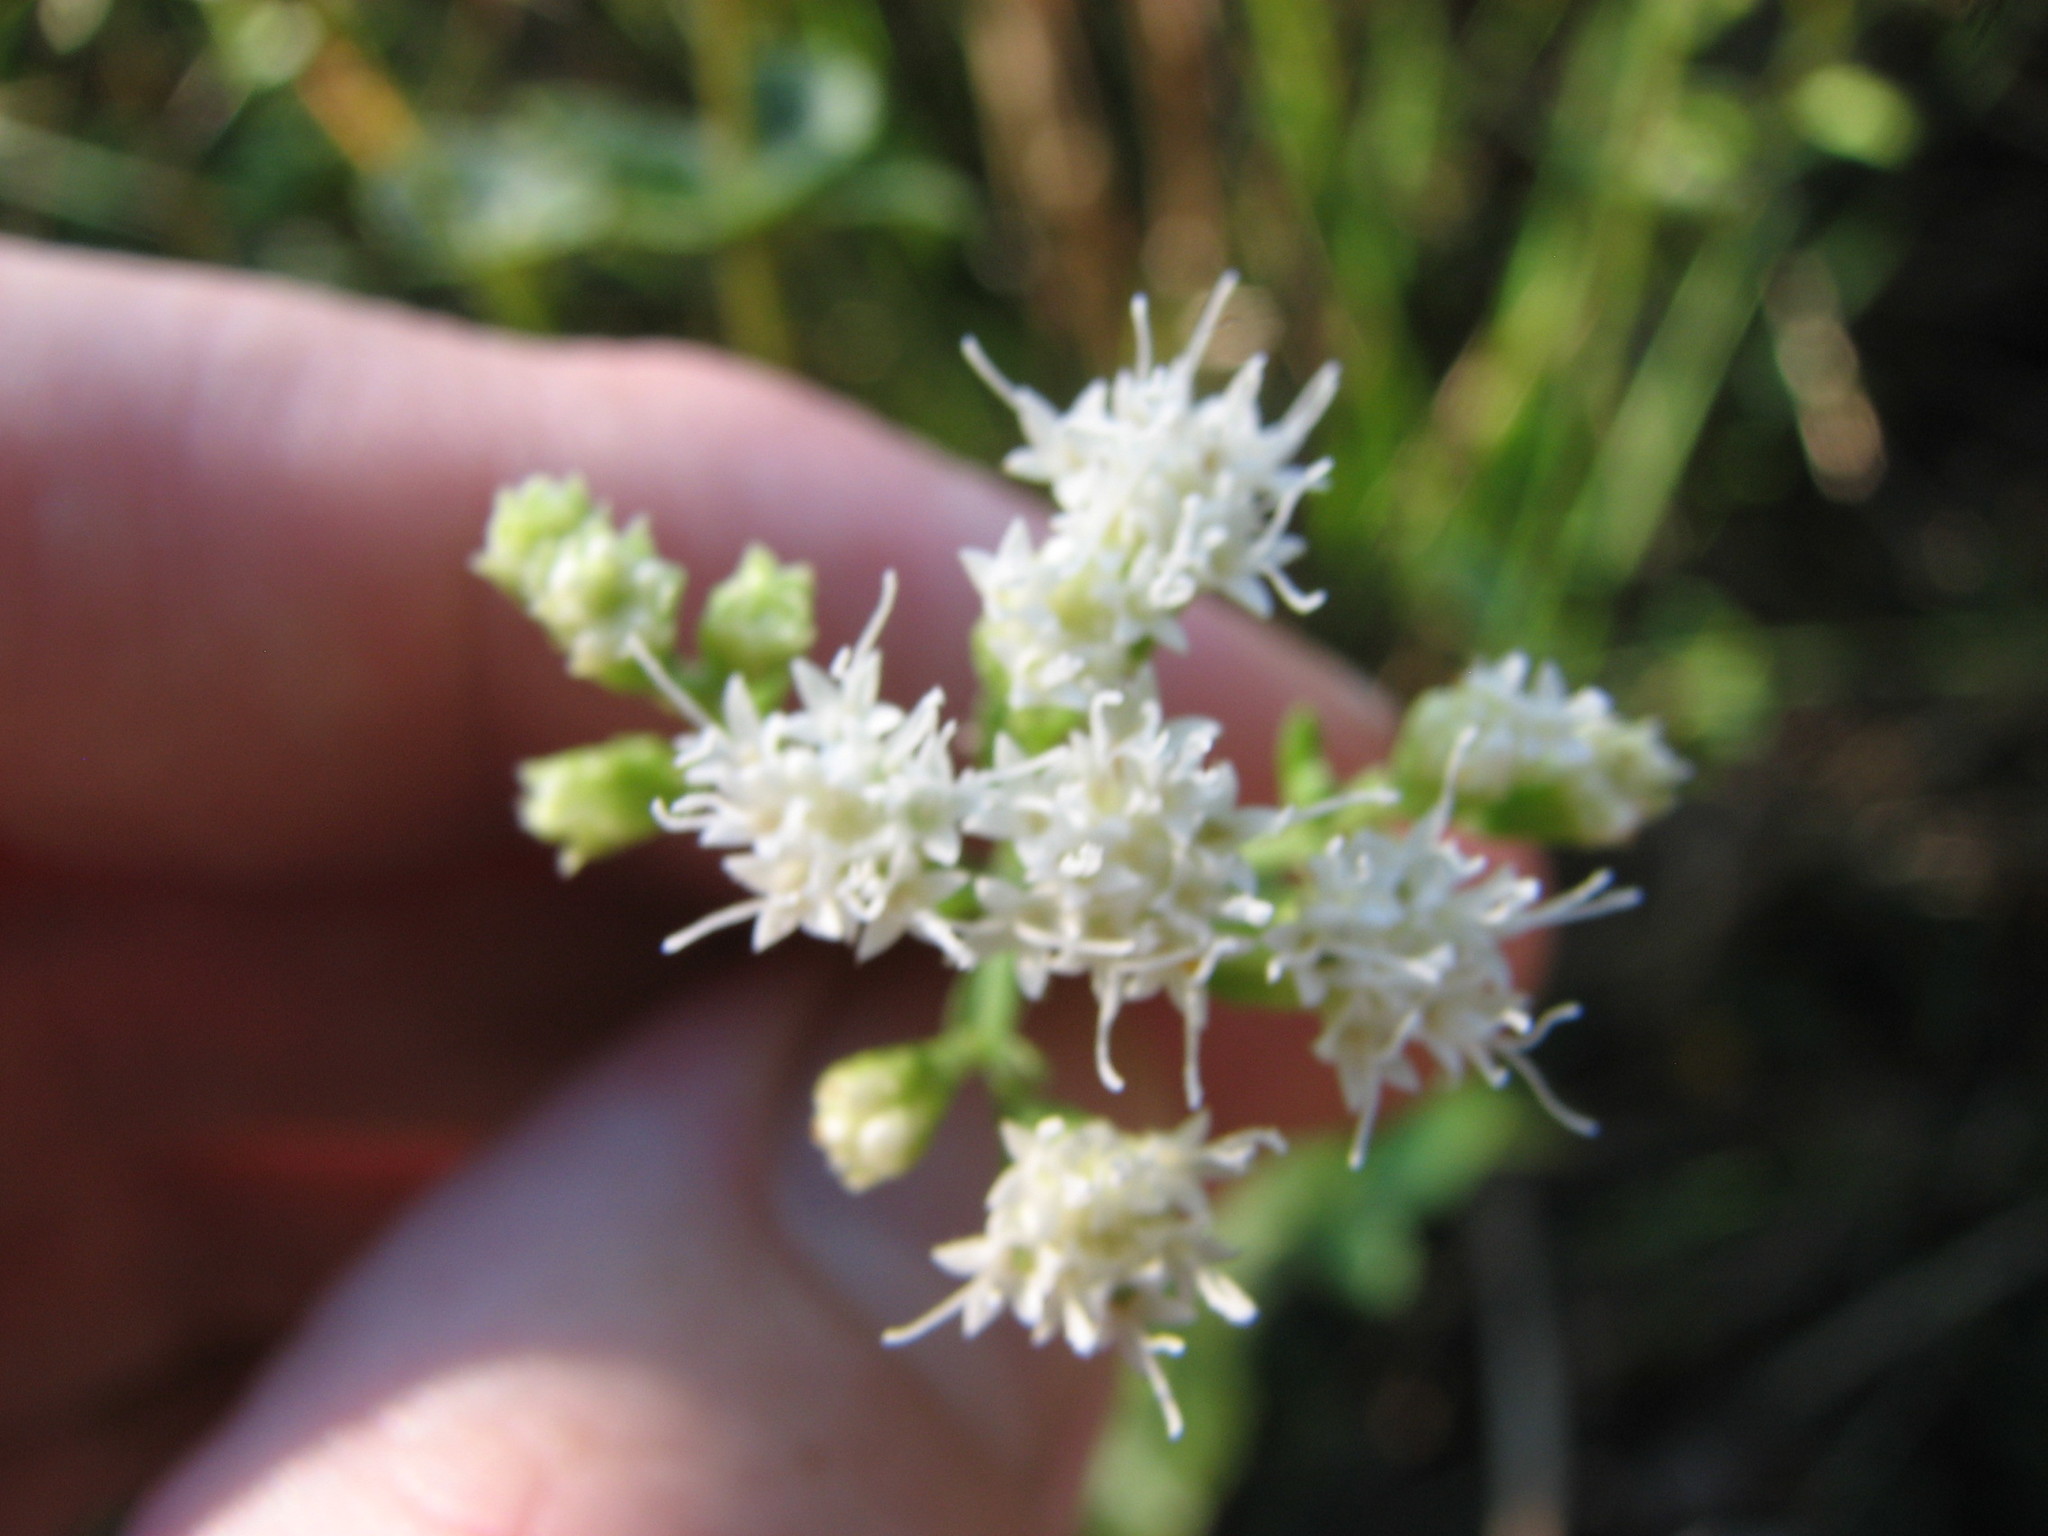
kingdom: Plantae
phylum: Tracheophyta
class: Magnoliopsida
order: Asterales
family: Asteraceae
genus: Ageratina
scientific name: Ageratina aromatica
